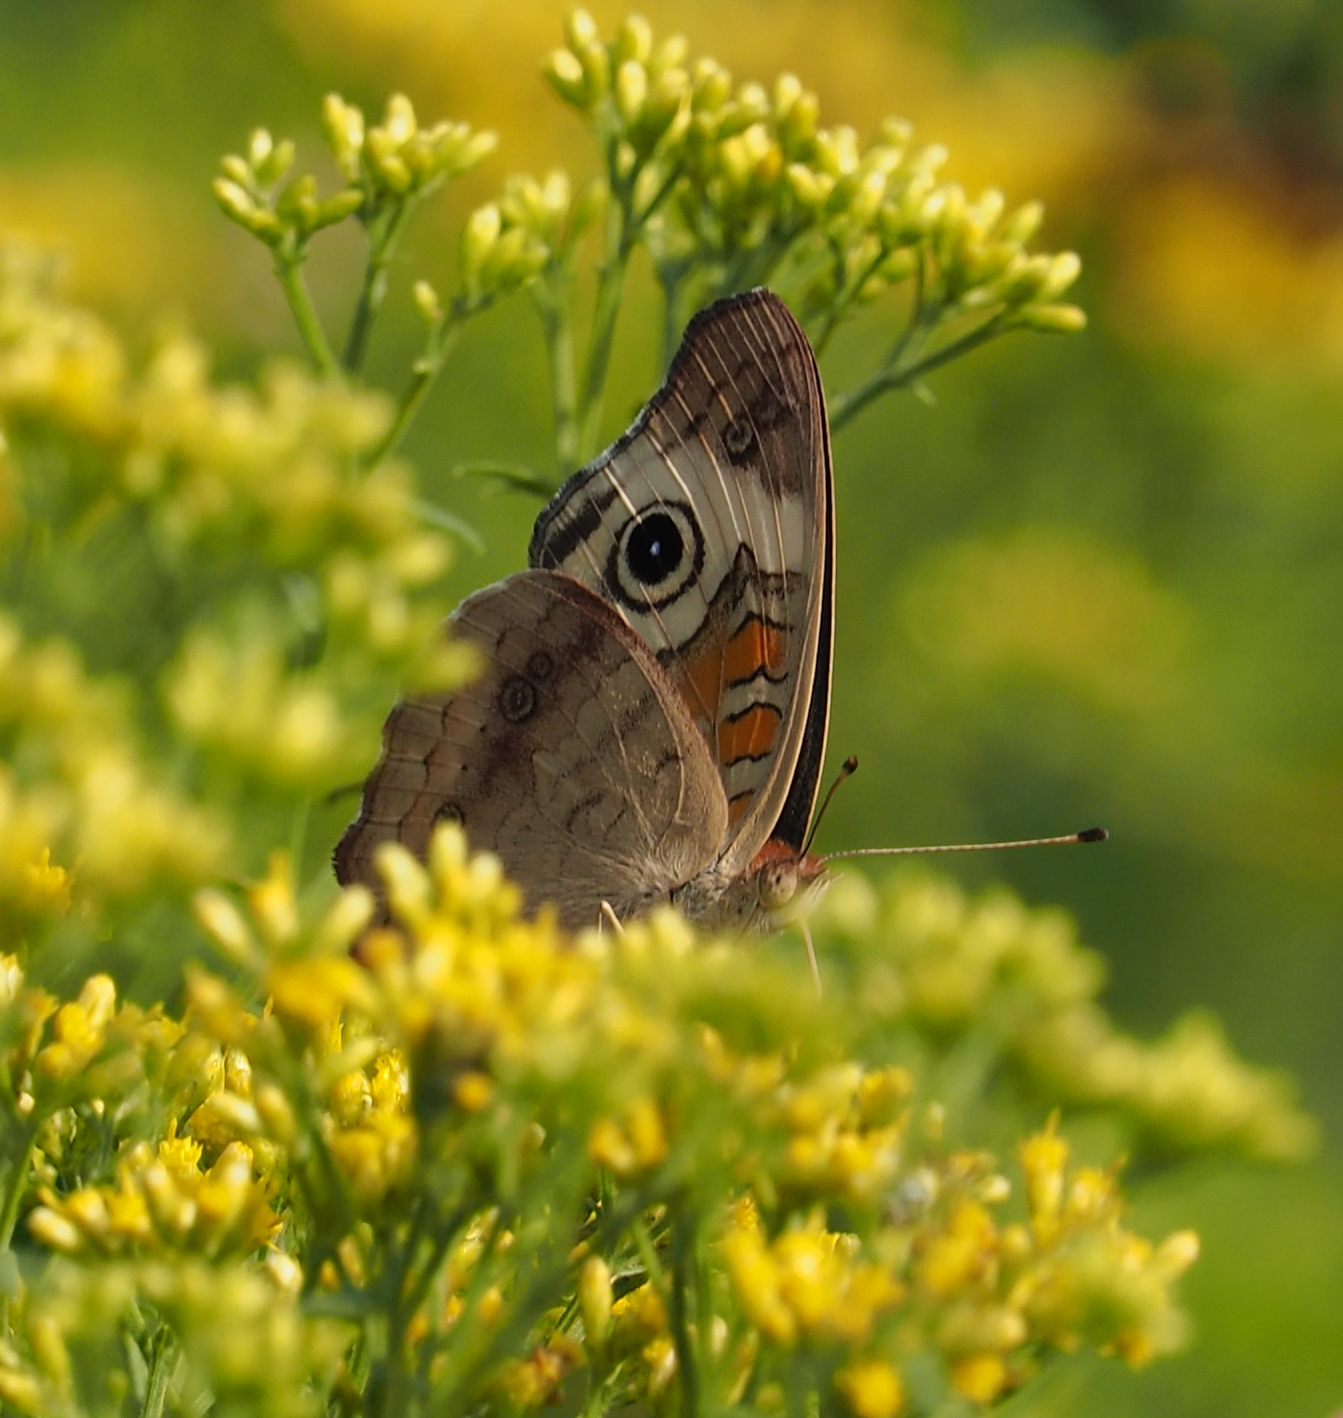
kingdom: Animalia
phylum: Arthropoda
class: Insecta
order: Lepidoptera
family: Nymphalidae
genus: Junonia
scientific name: Junonia coenia
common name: Common buckeye
